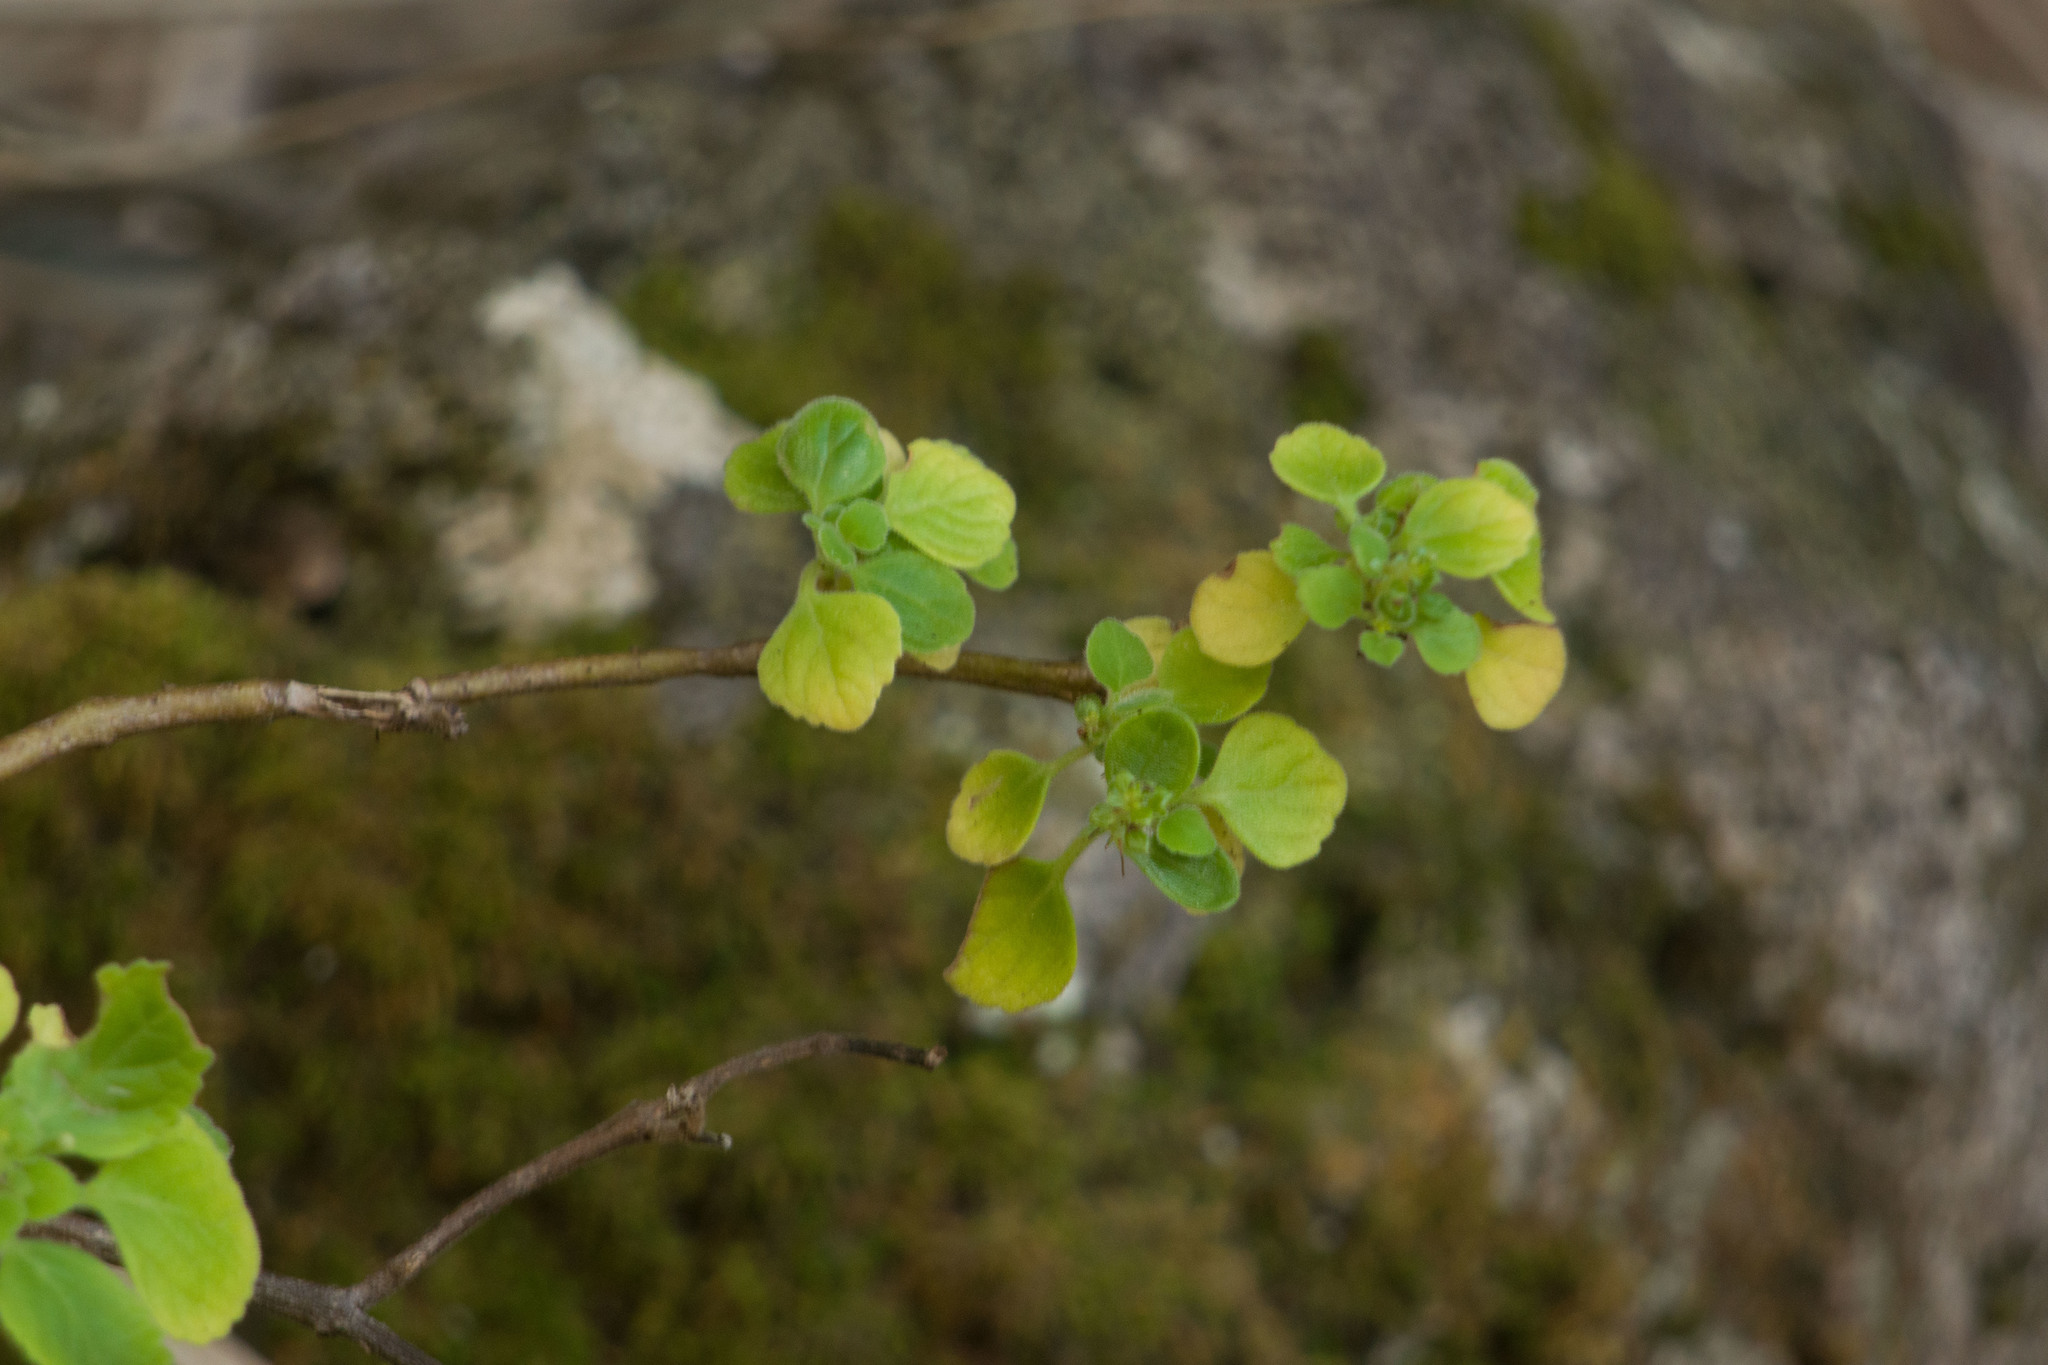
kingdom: Plantae
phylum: Tracheophyta
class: Magnoliopsida
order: Lamiales
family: Lamiaceae
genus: Coleus
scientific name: Coleus australis
